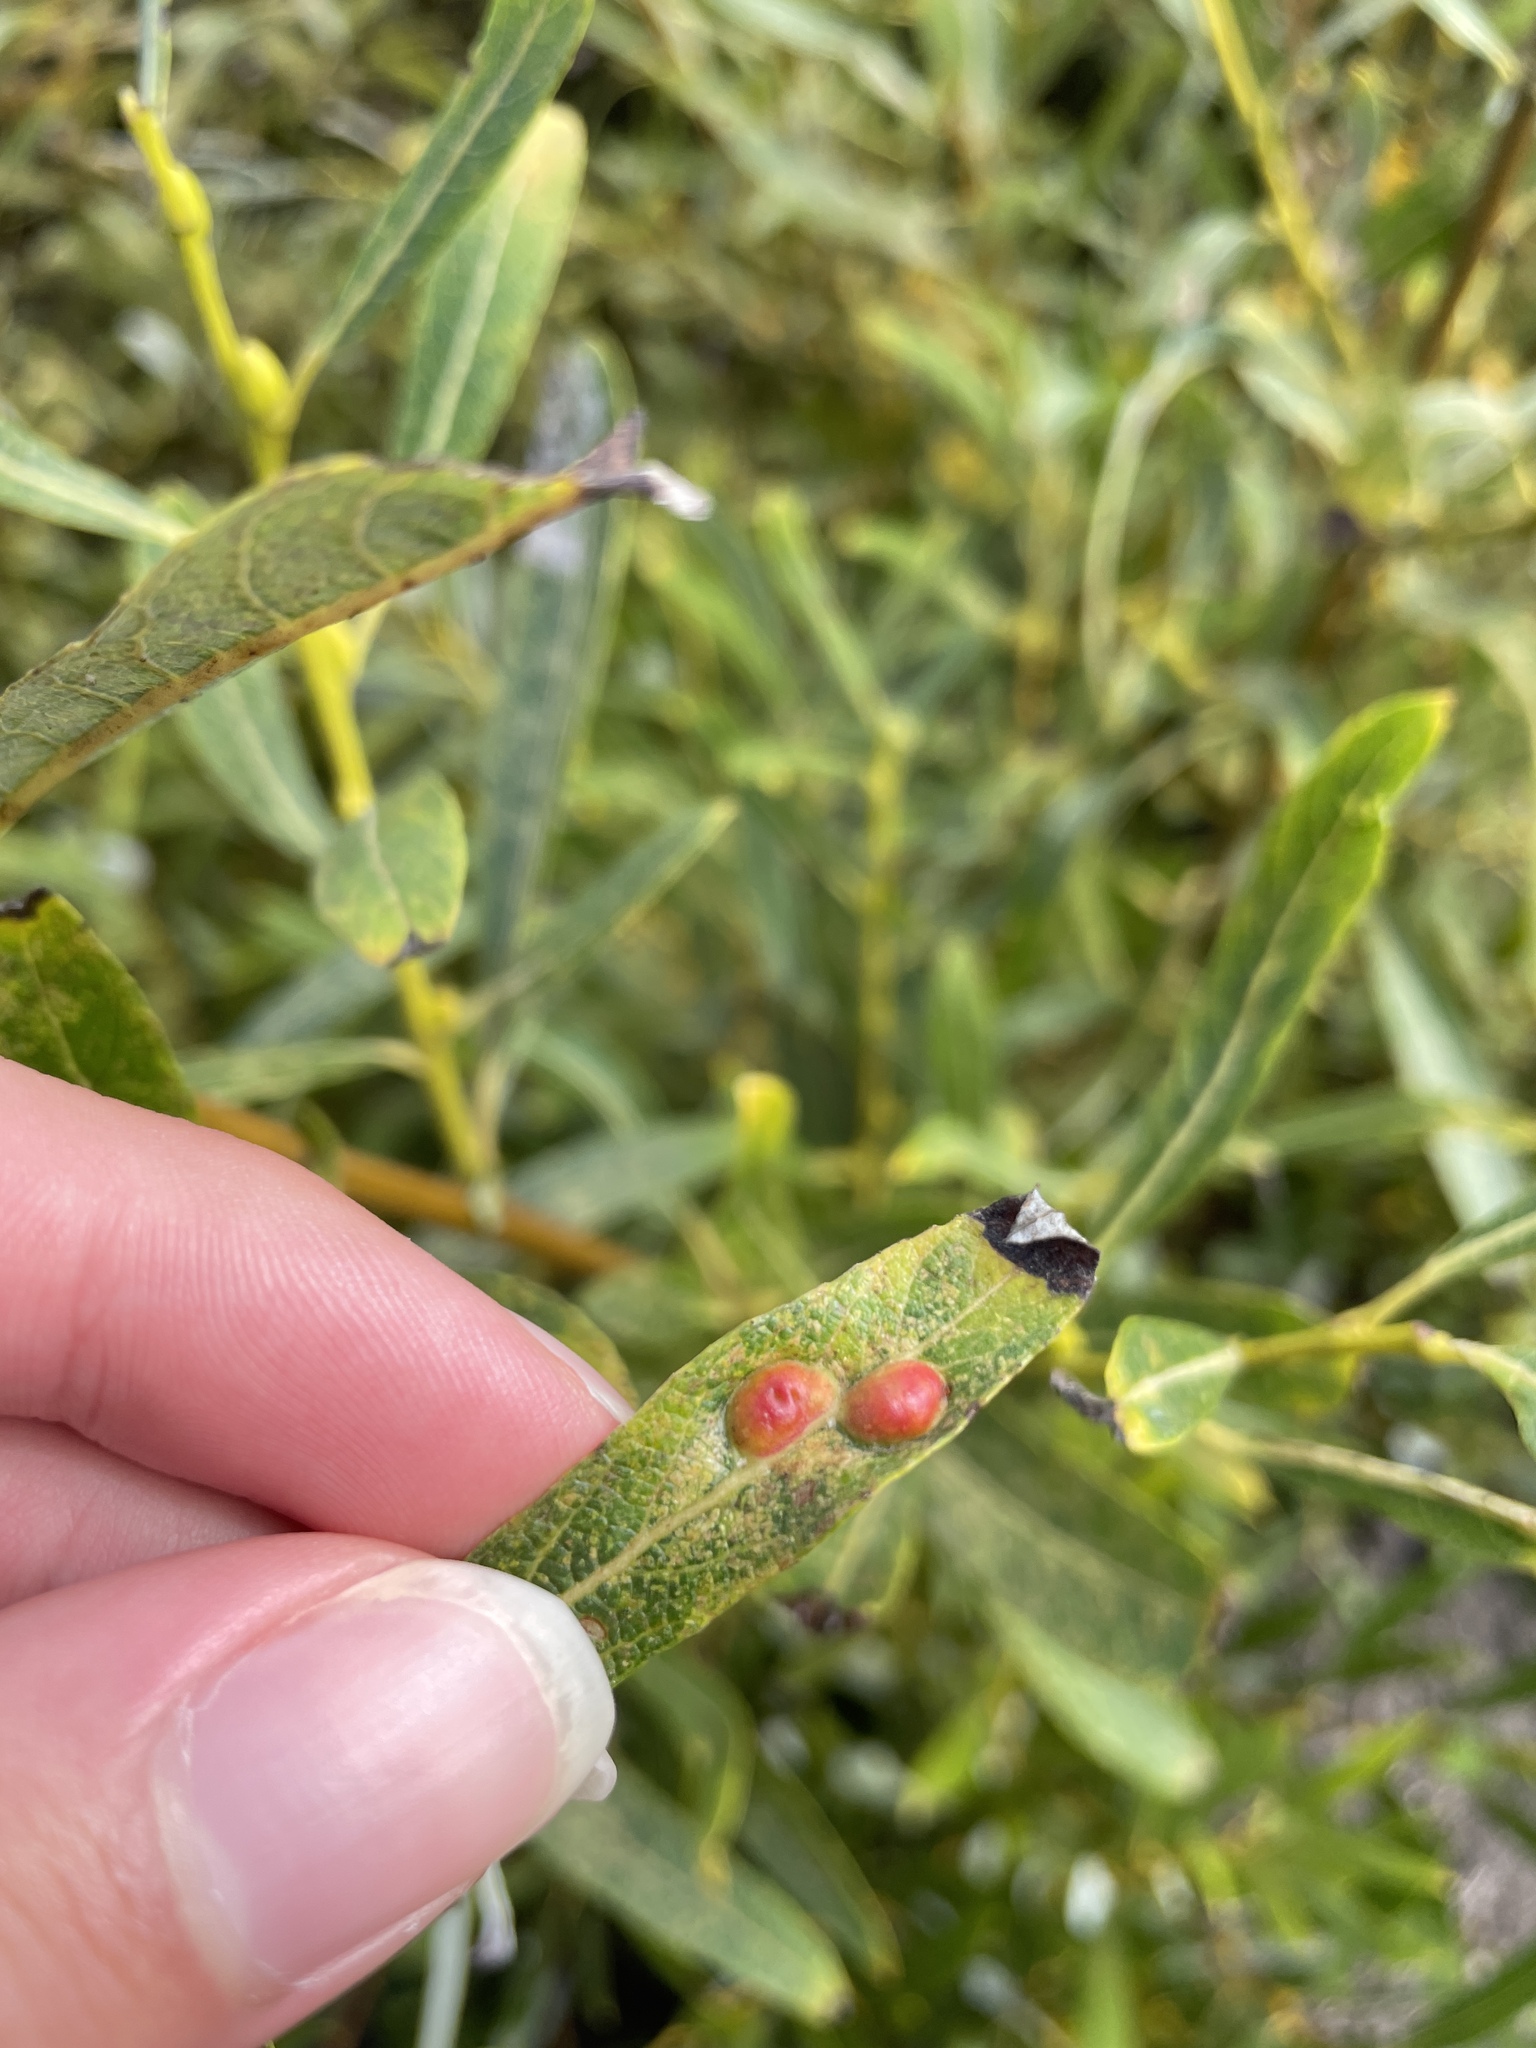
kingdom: Animalia
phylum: Arthropoda
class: Insecta
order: Hymenoptera
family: Tenthredinidae
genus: Euura
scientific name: Euura
